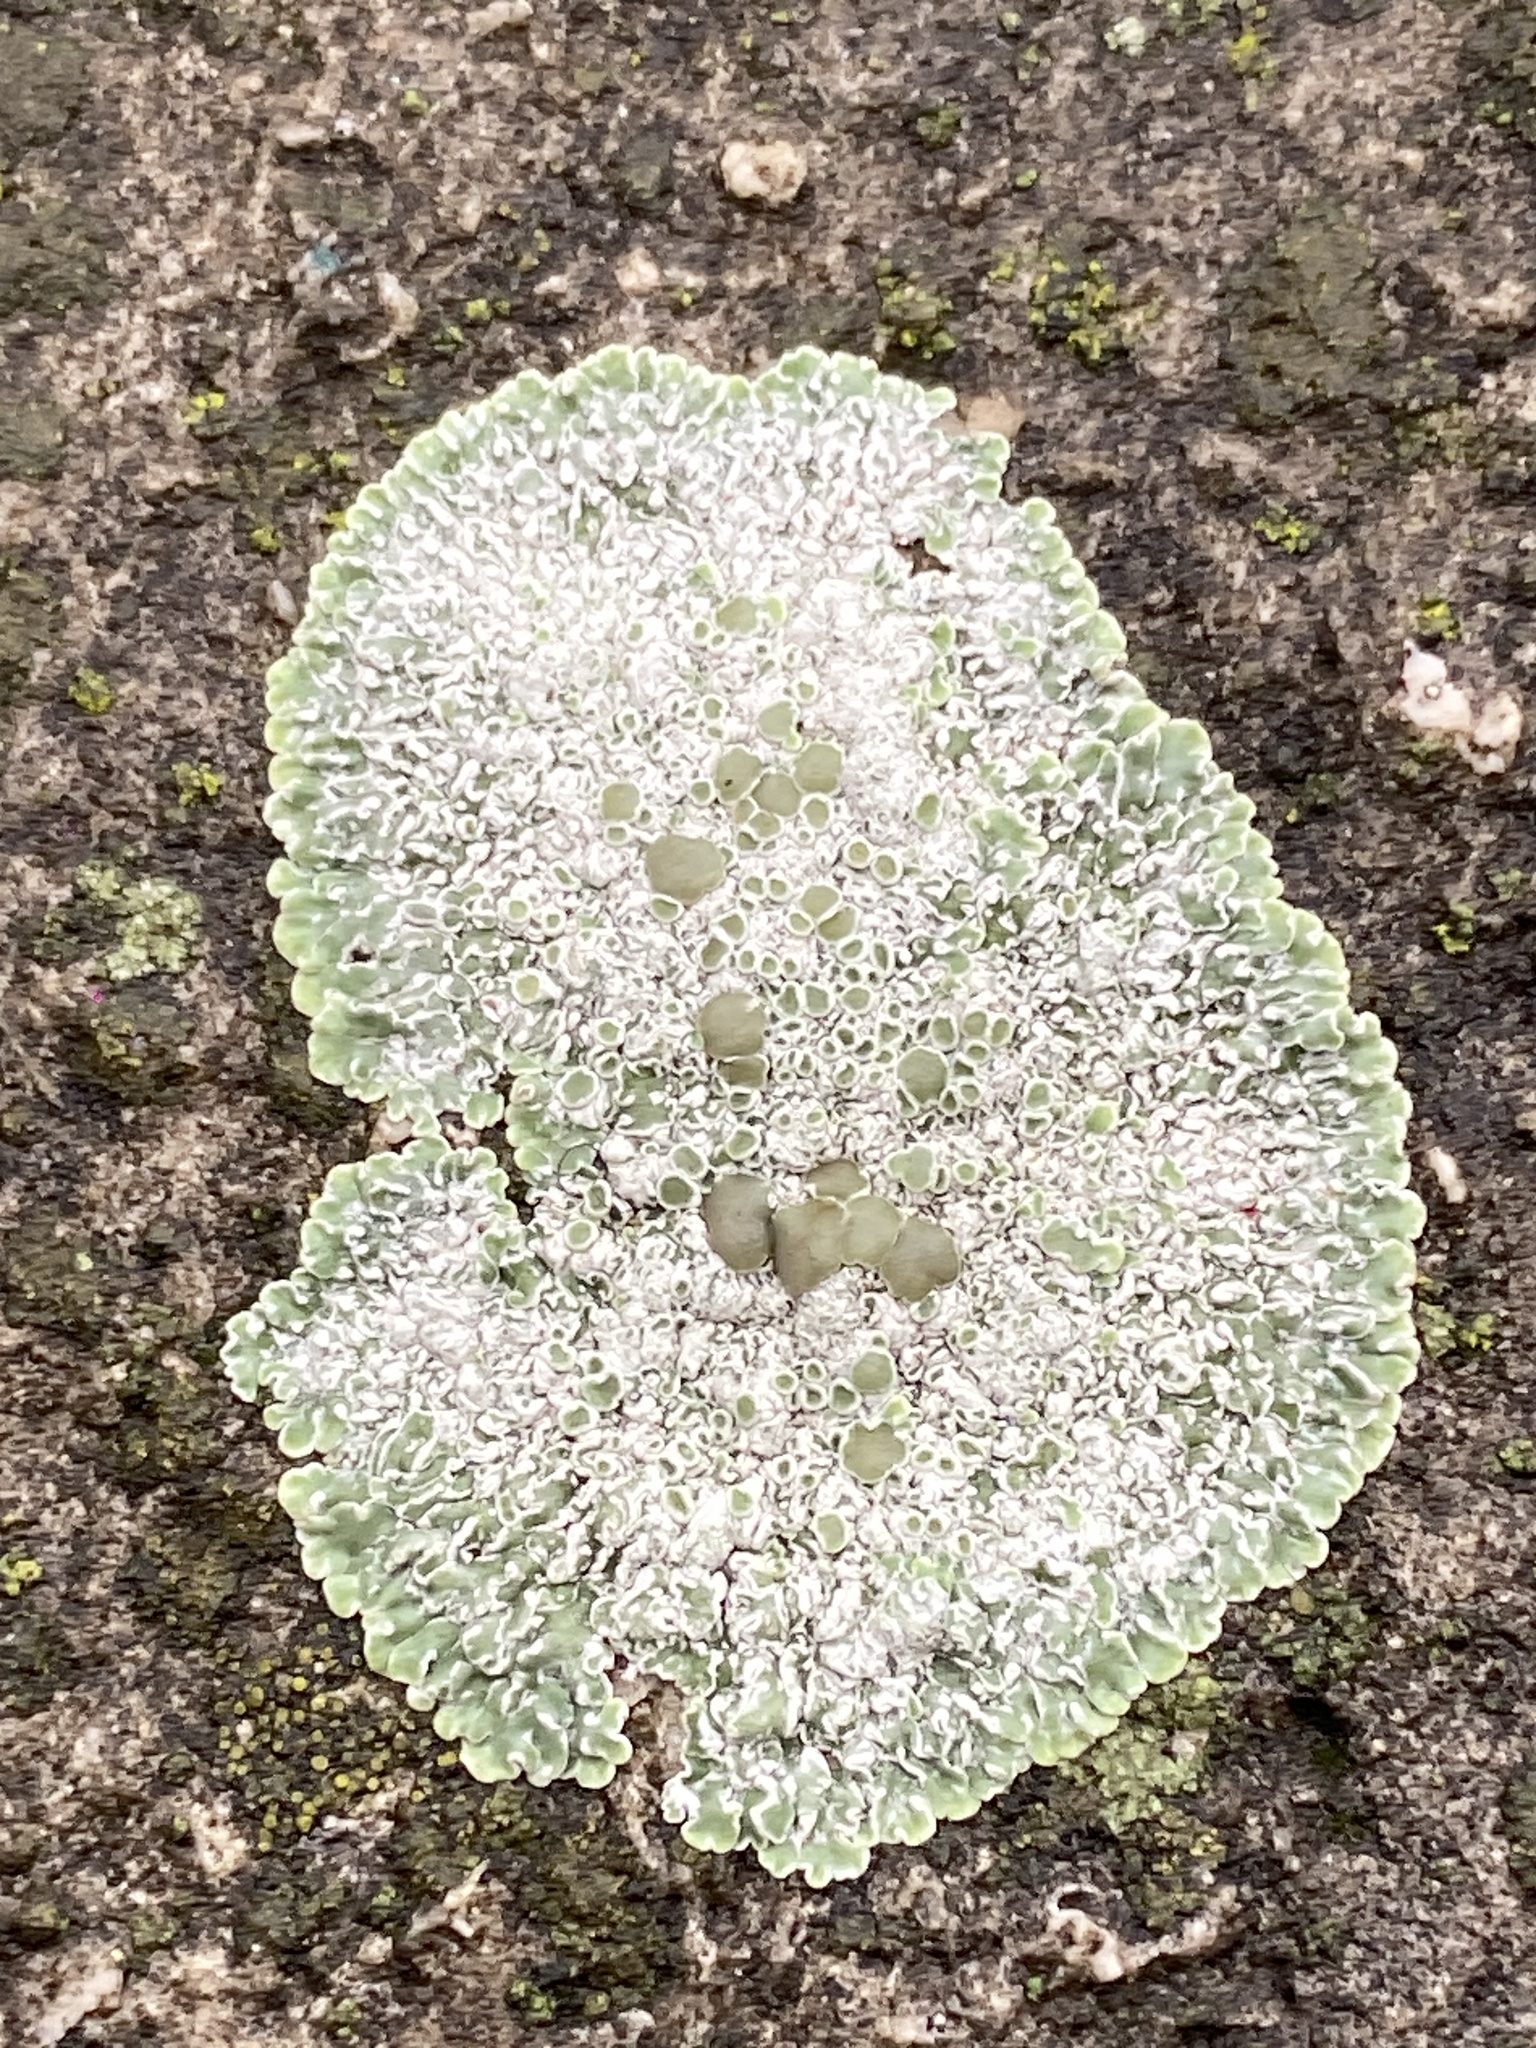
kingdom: Fungi
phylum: Ascomycota
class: Lecanoromycetes
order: Lecanorales
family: Lecanoraceae
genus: Protoparmeliopsis
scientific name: Protoparmeliopsis muralis
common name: Stonewall rim lichen
